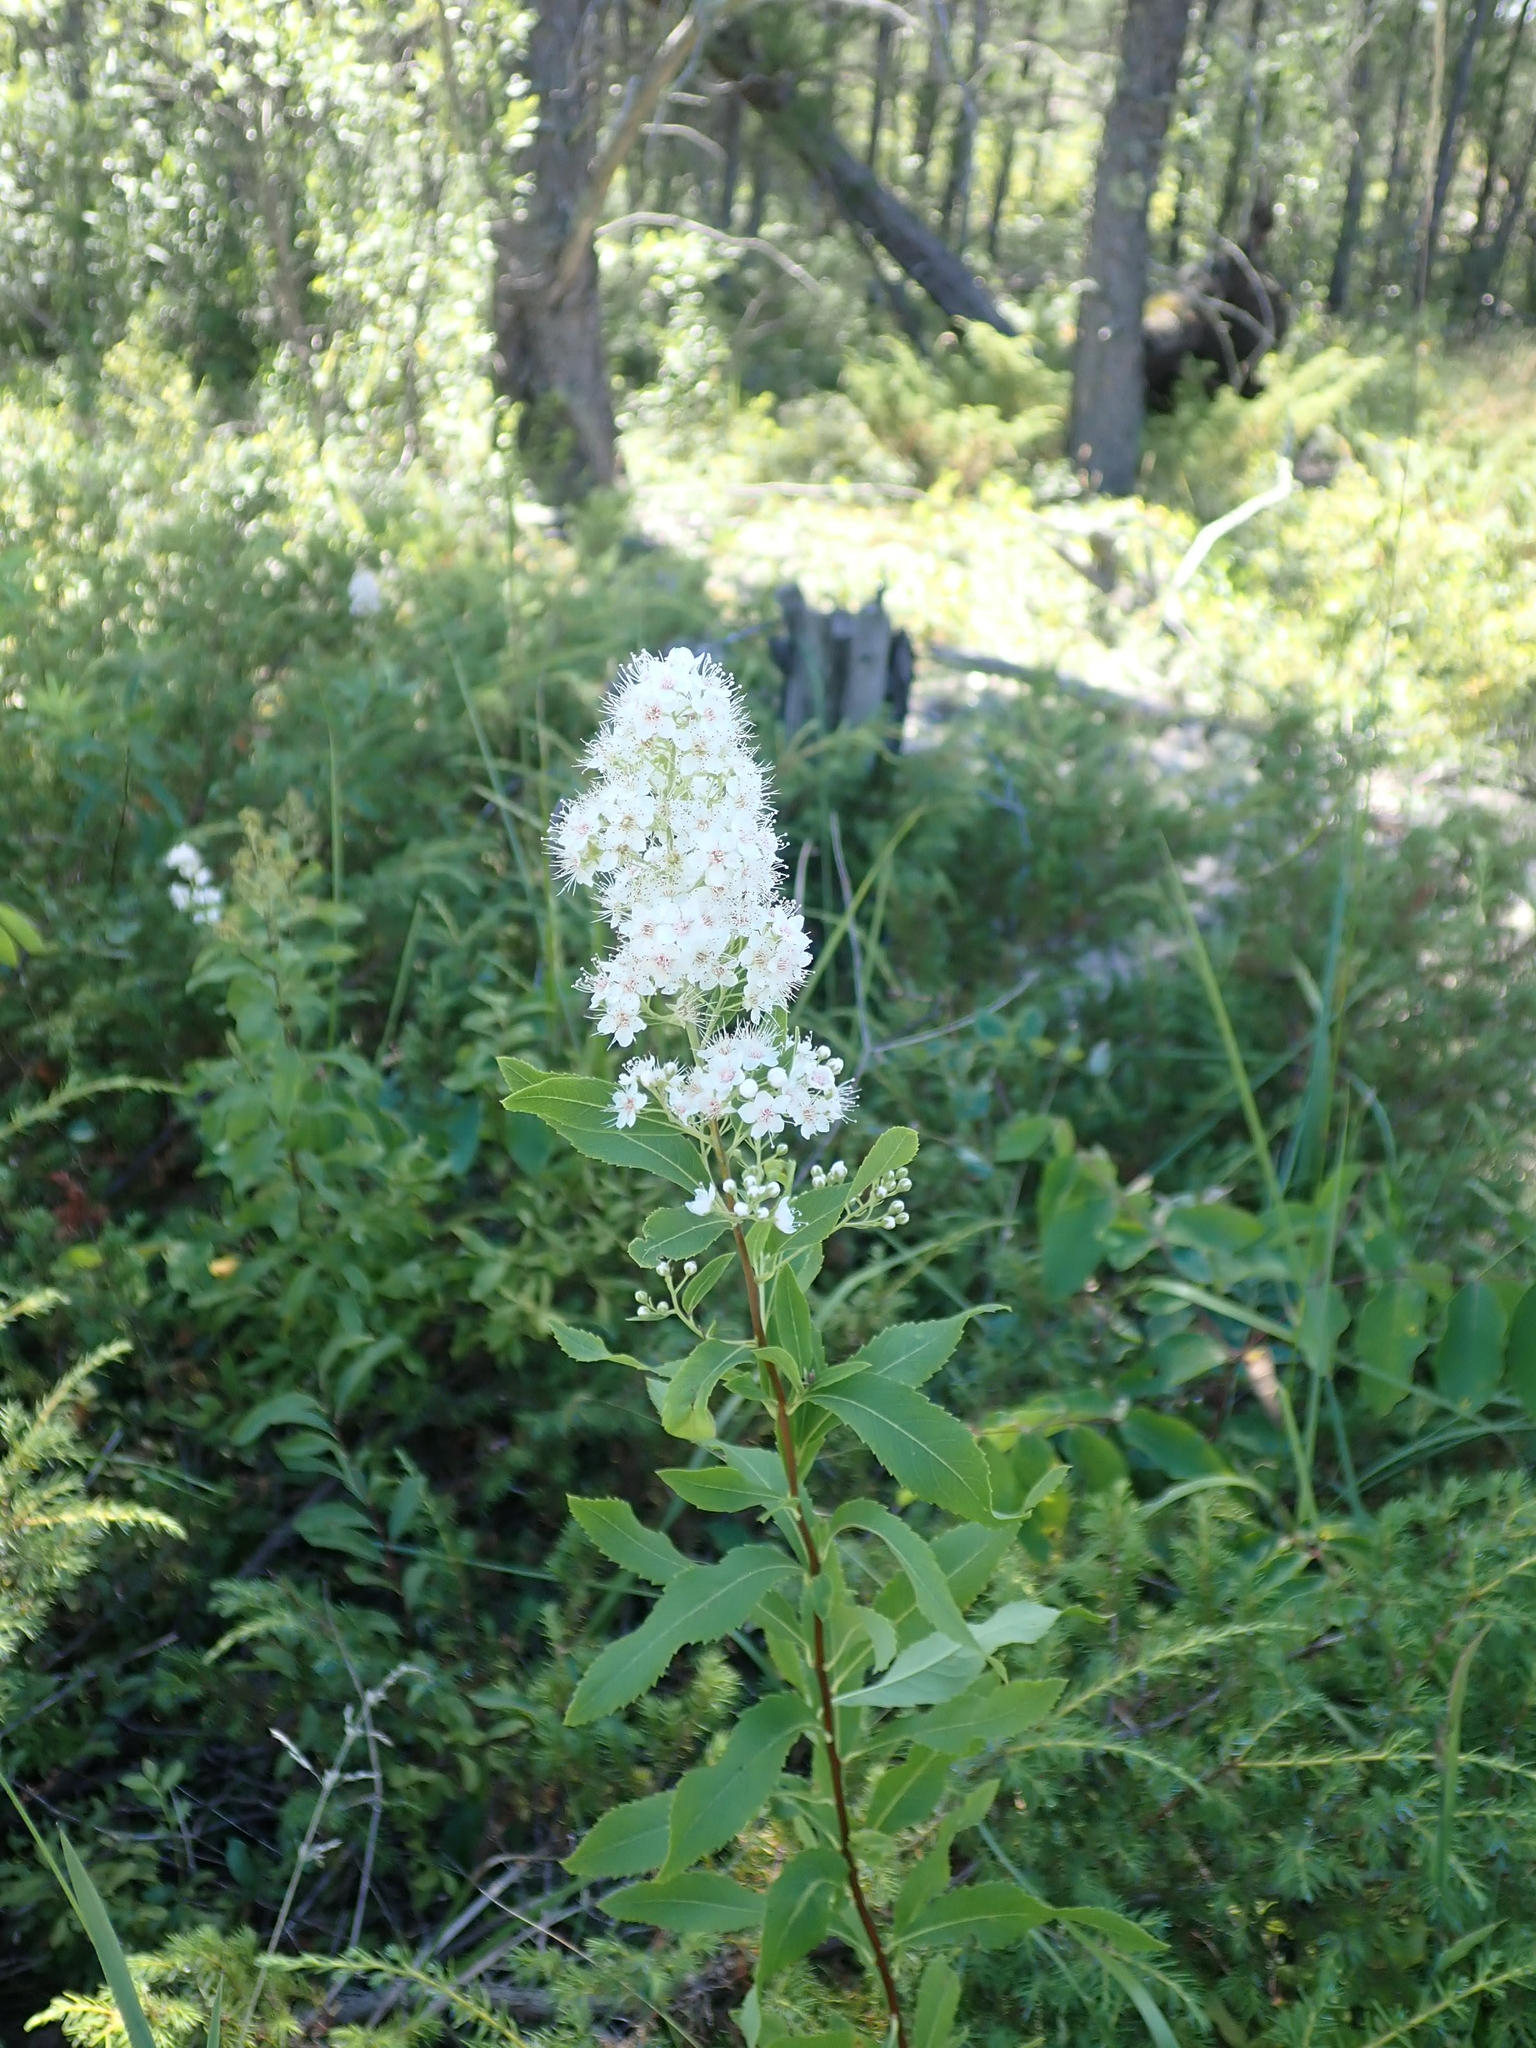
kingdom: Plantae
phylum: Tracheophyta
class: Magnoliopsida
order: Rosales
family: Rosaceae
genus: Spiraea
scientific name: Spiraea alba
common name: Pale bridewort
